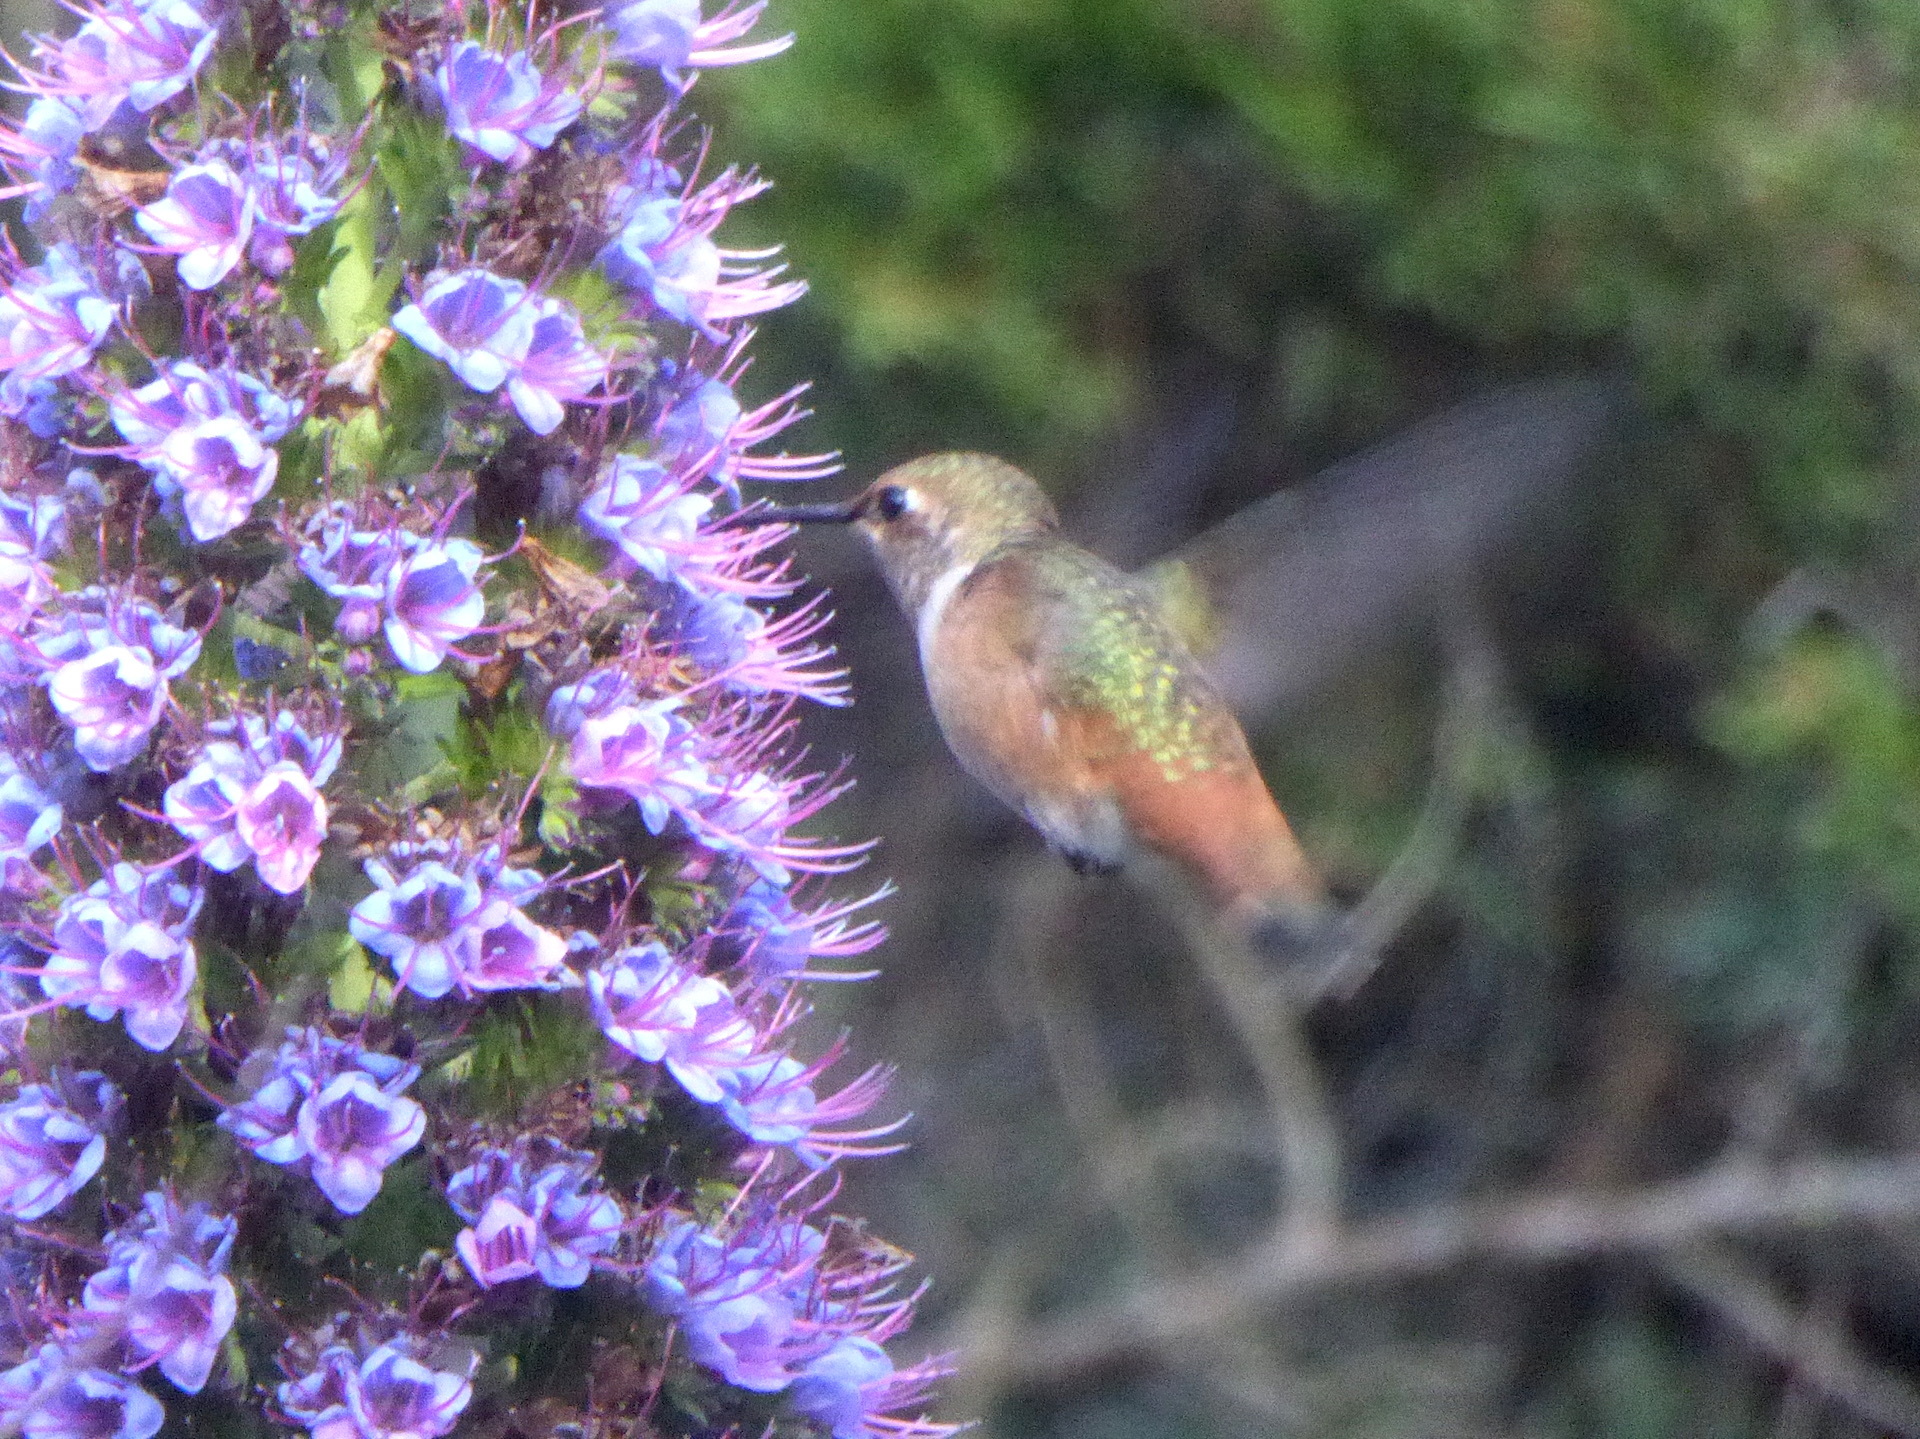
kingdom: Animalia
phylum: Chordata
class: Aves
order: Apodiformes
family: Trochilidae
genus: Selasphorus
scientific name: Selasphorus sasin
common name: Allen's hummingbird
